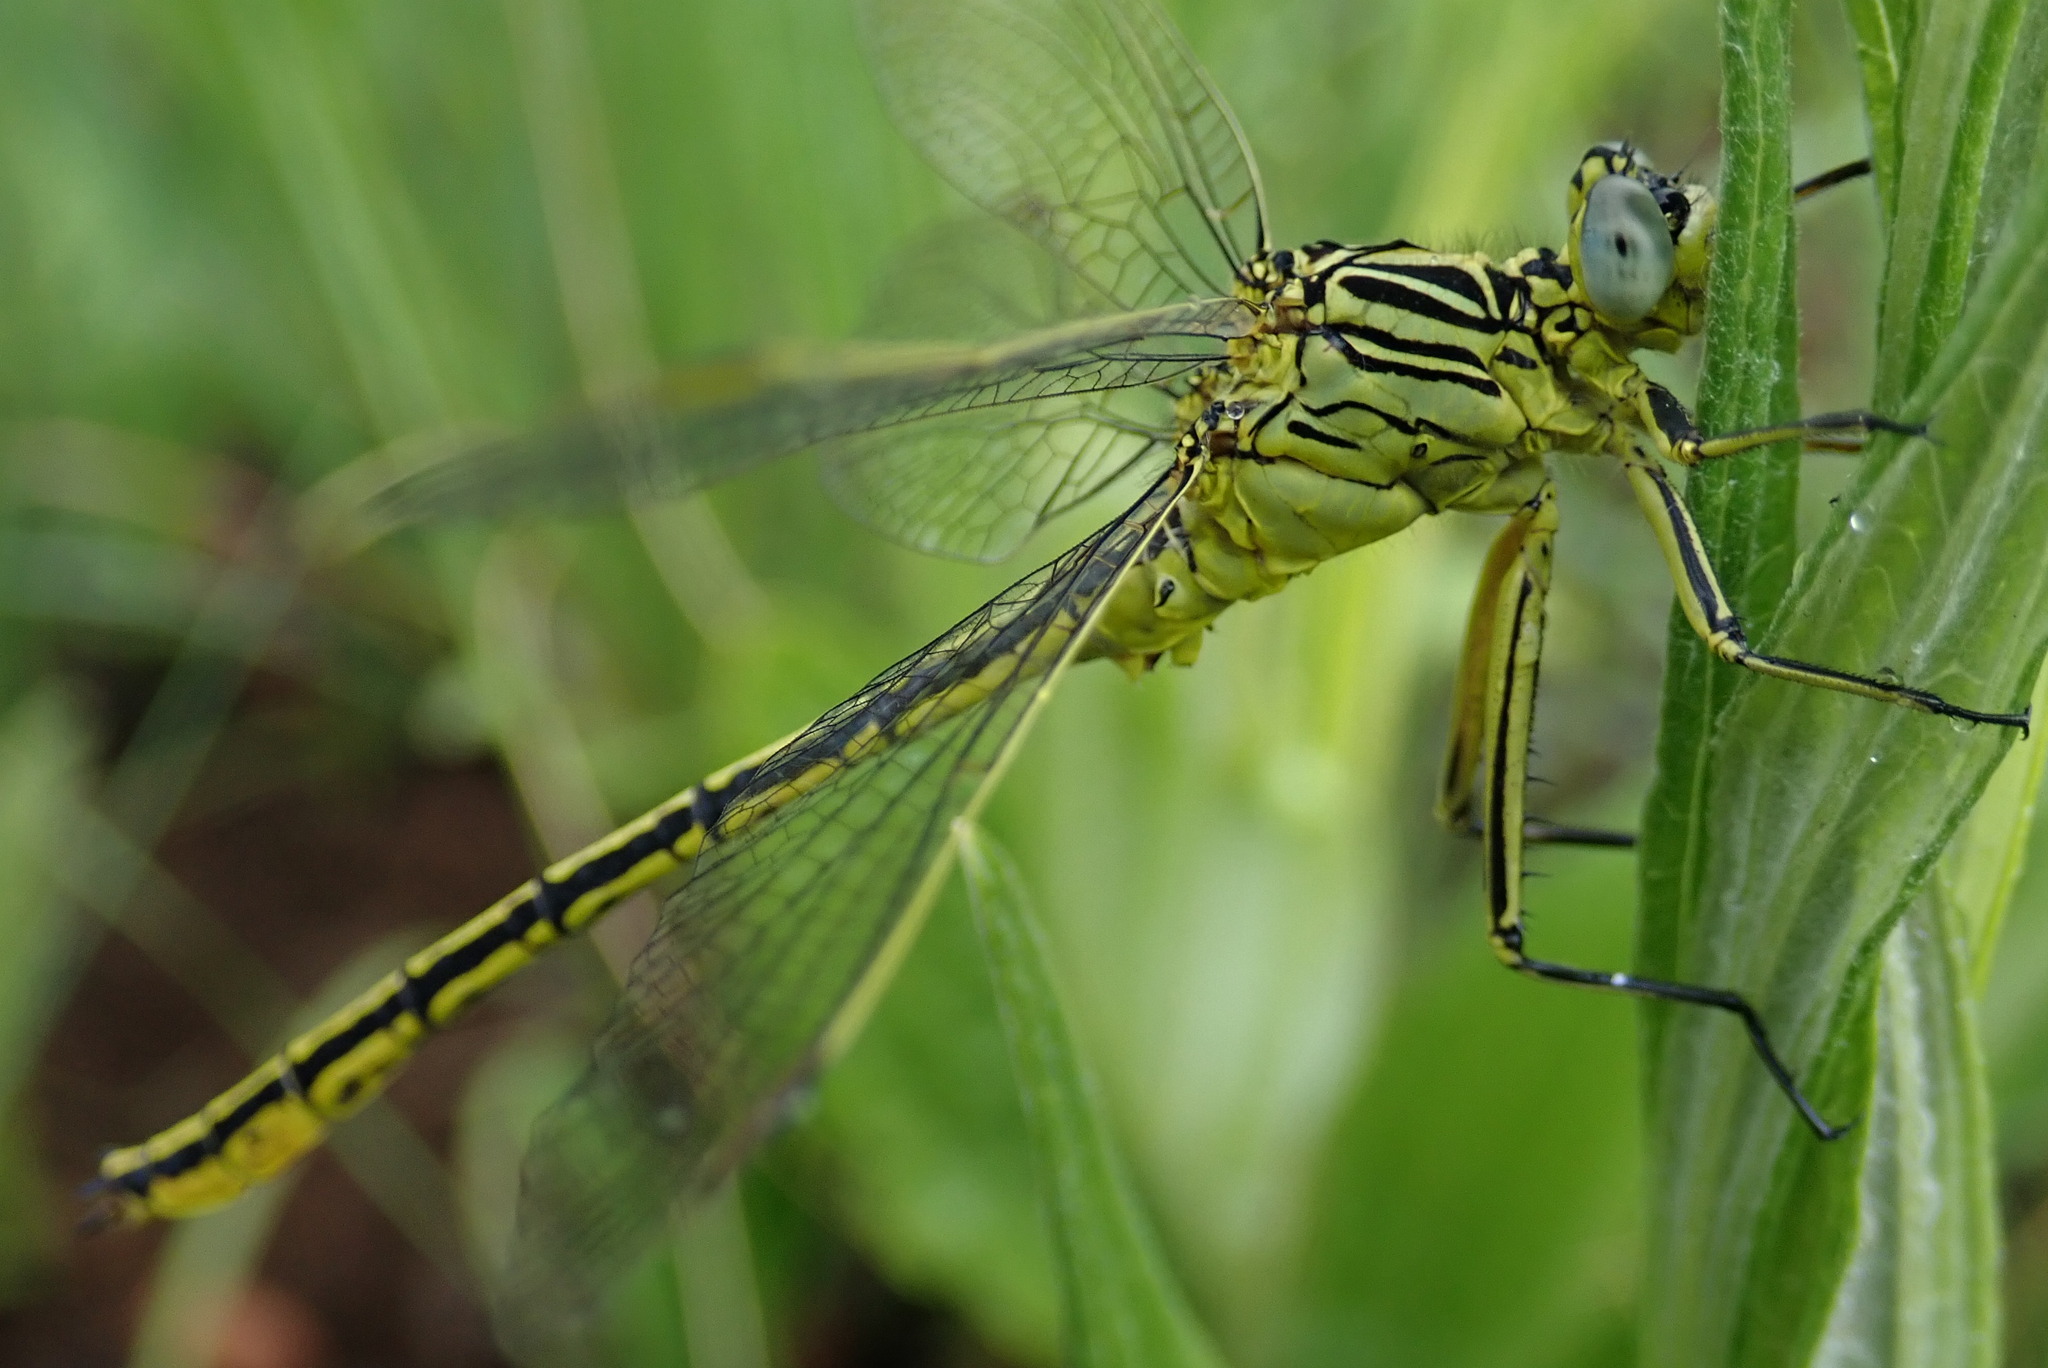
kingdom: Animalia
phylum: Arthropoda
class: Insecta
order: Odonata
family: Gomphidae
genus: Notogomphus
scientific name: Notogomphus praetorius
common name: Southern yellowjack
